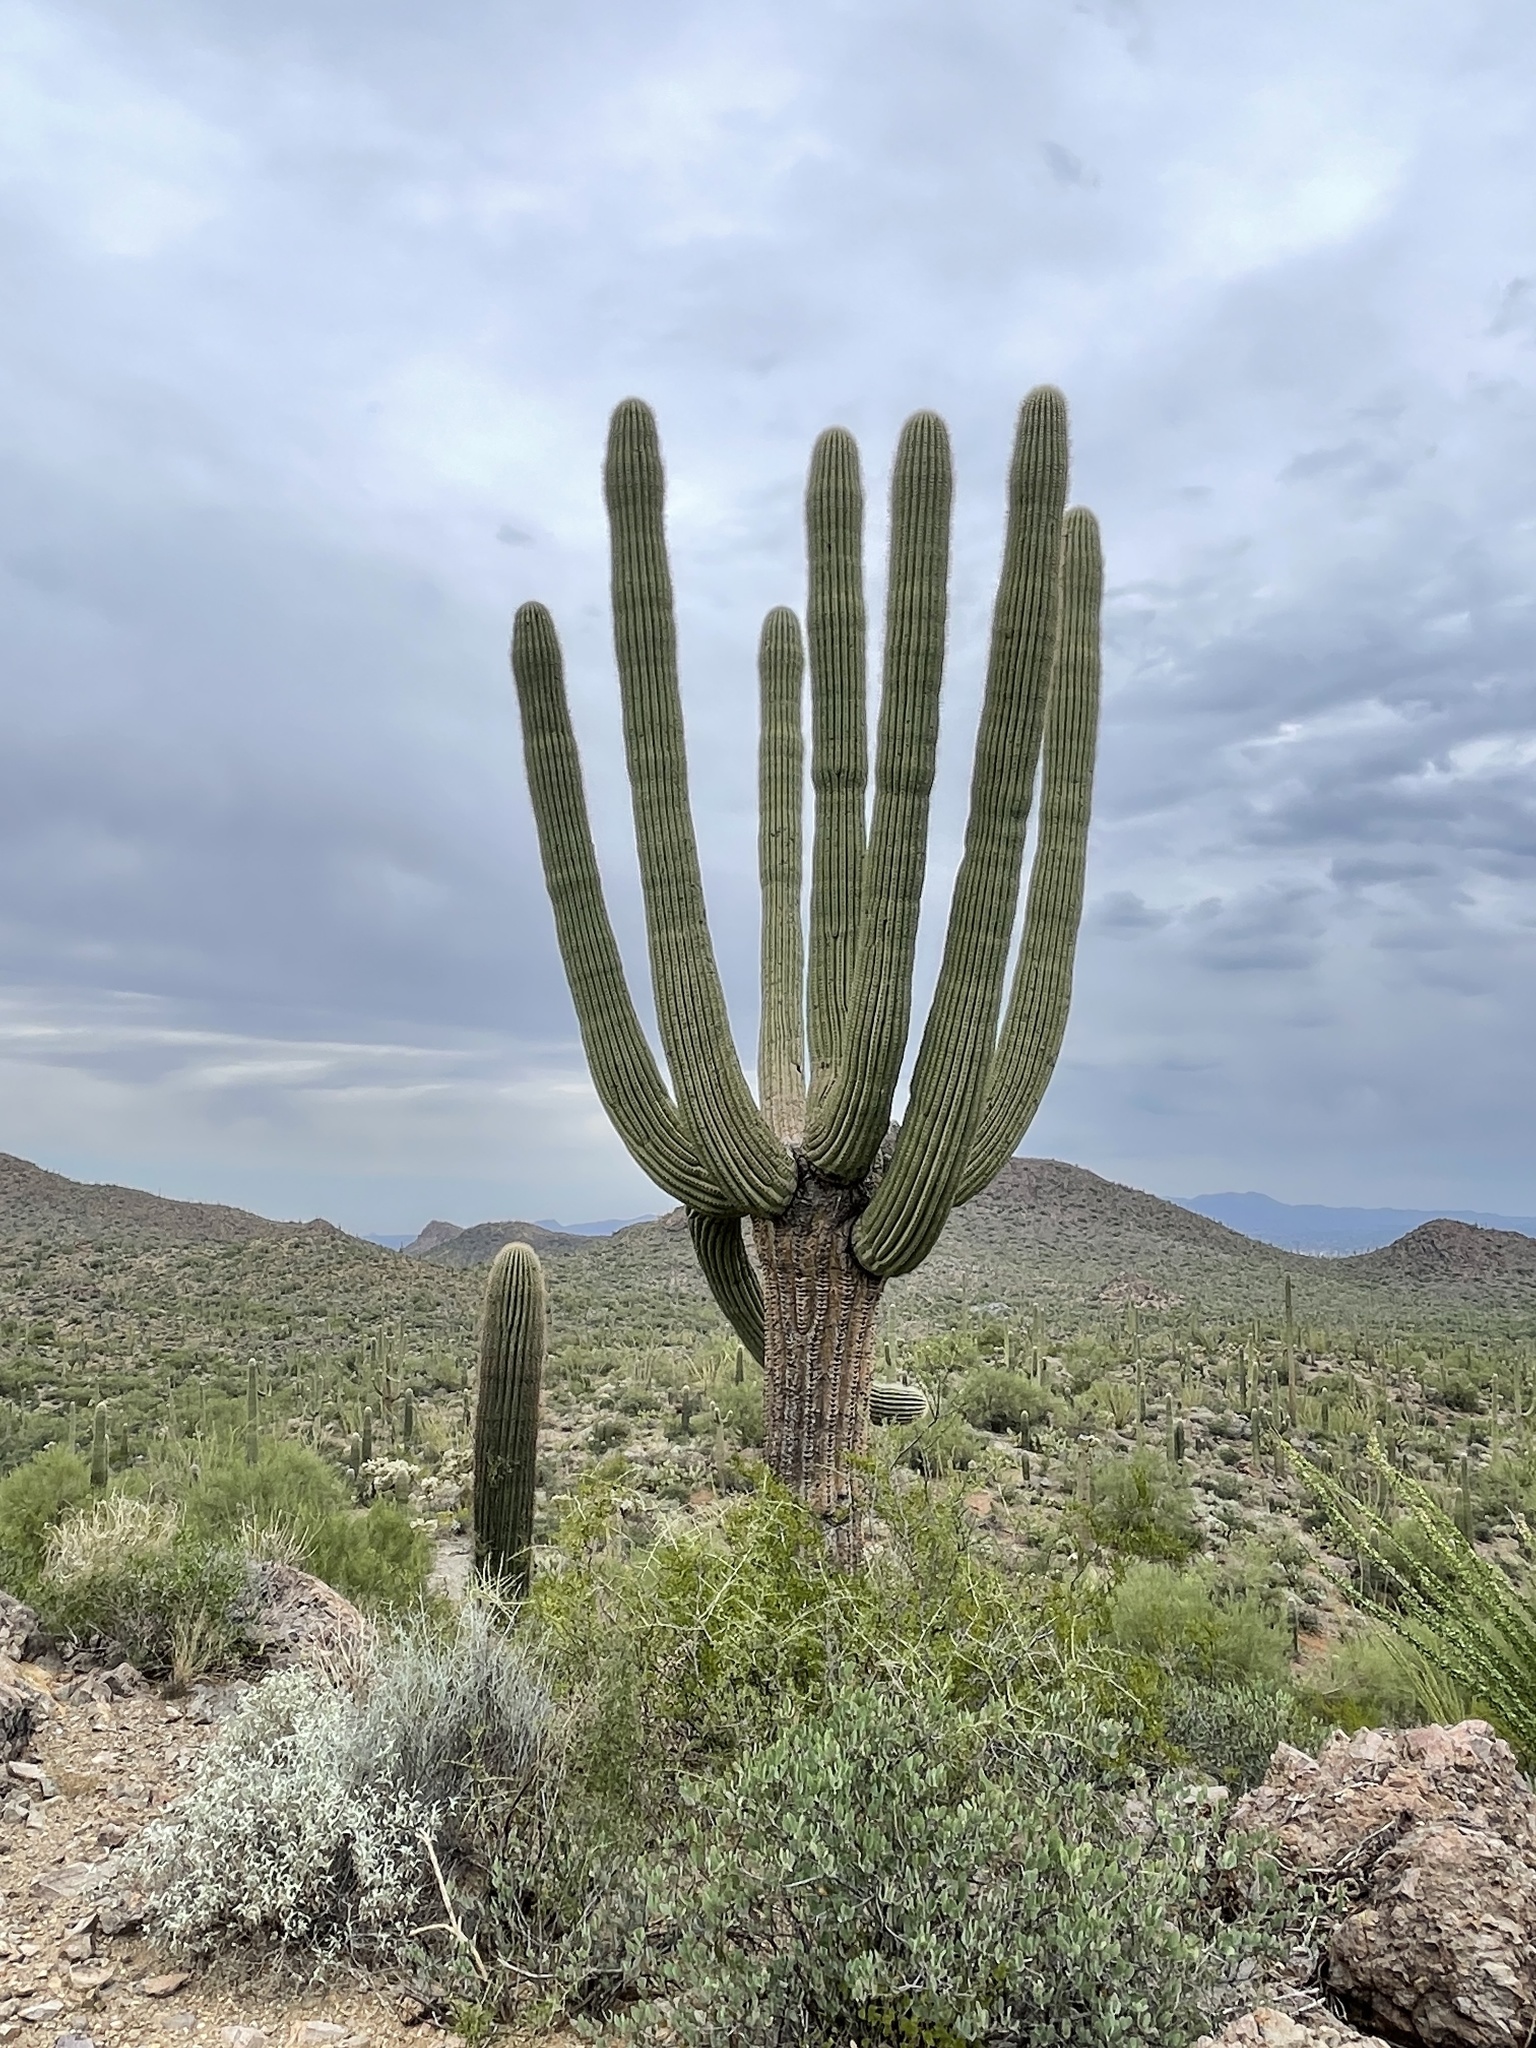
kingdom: Plantae
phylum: Tracheophyta
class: Magnoliopsida
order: Caryophyllales
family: Cactaceae
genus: Carnegiea
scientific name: Carnegiea gigantea
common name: Saguaro
